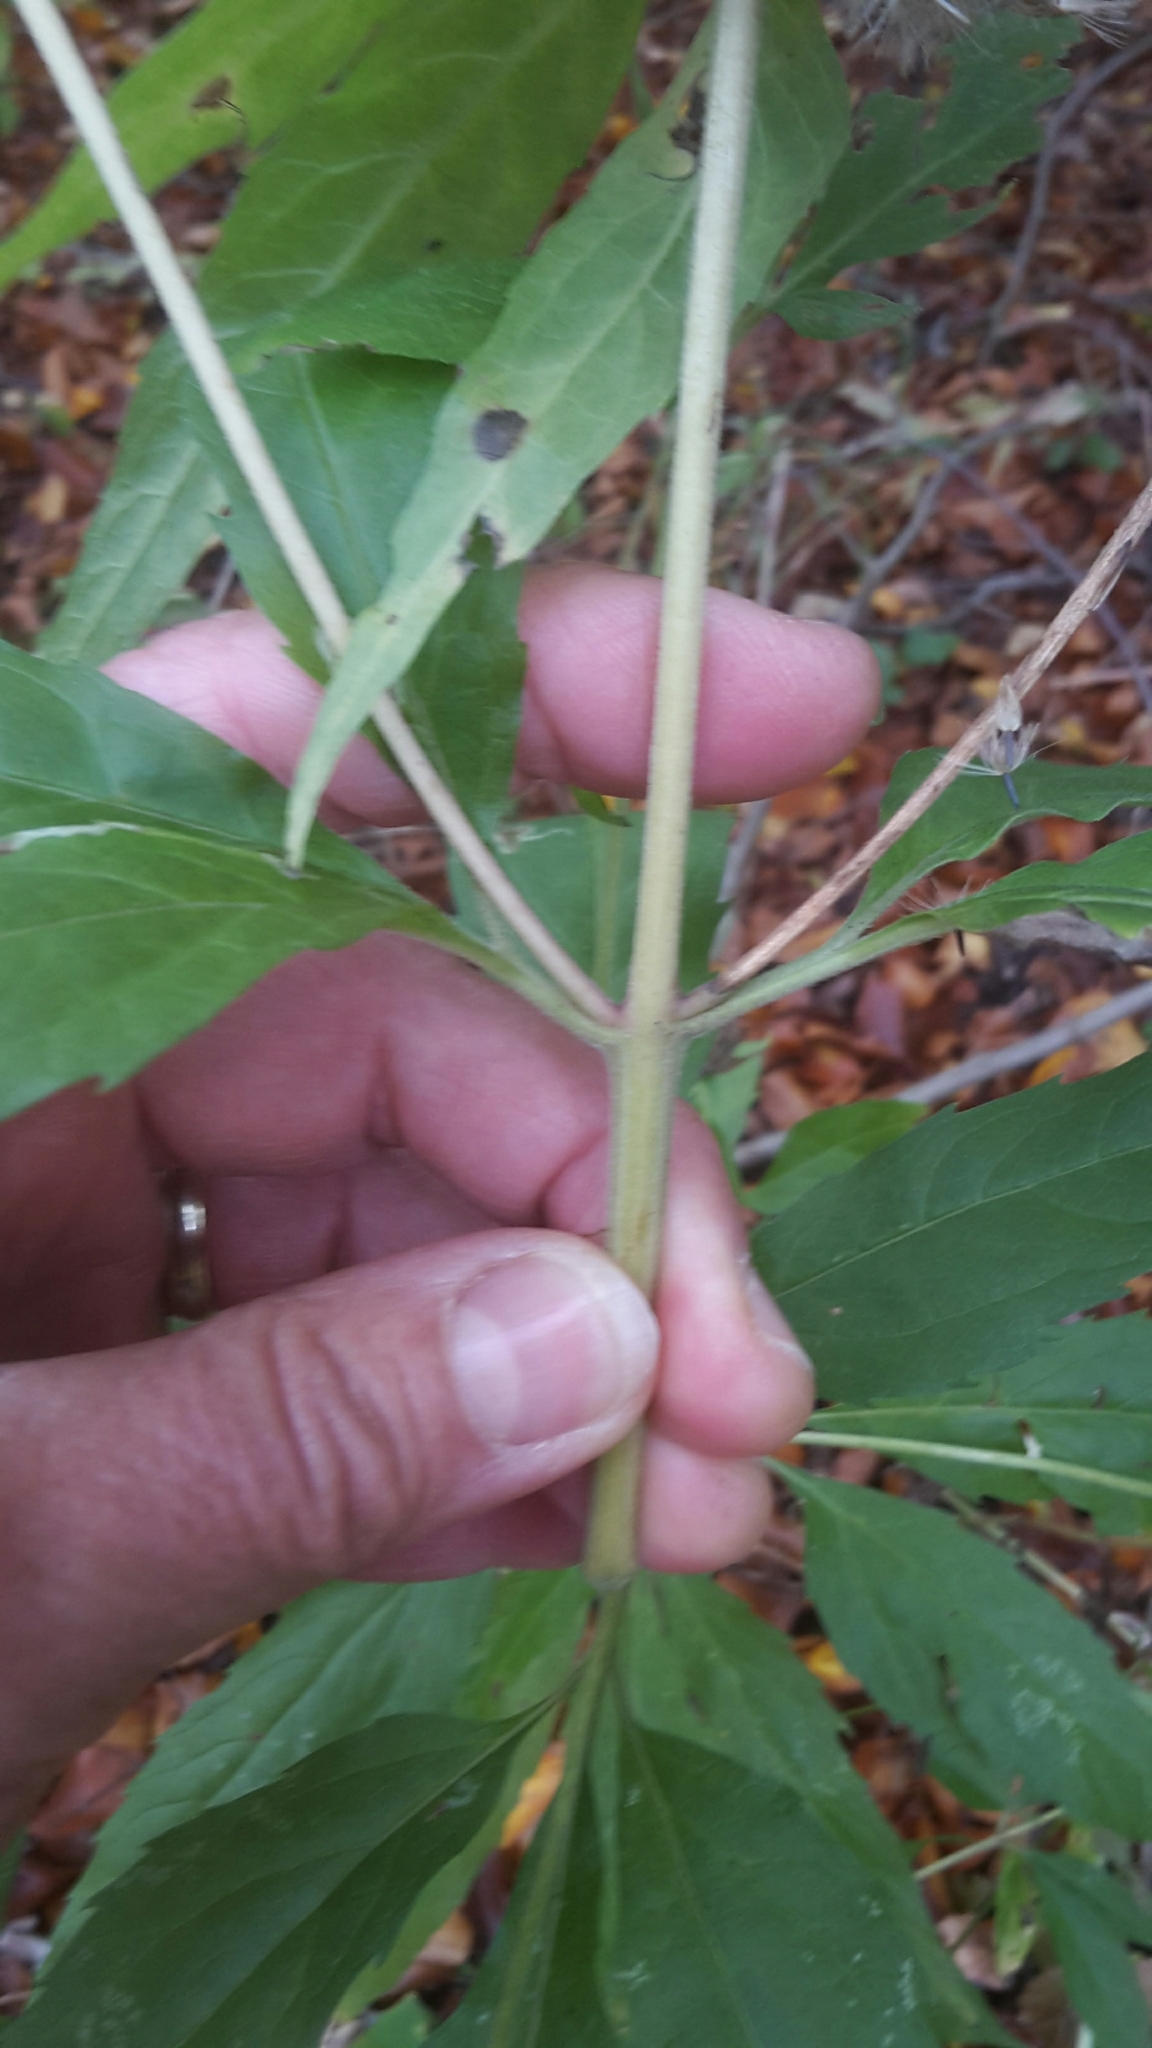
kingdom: Plantae
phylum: Tracheophyta
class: Magnoliopsida
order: Asterales
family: Asteraceae
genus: Eupatorium
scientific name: Eupatorium cannabinum
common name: Hemp-agrimony
